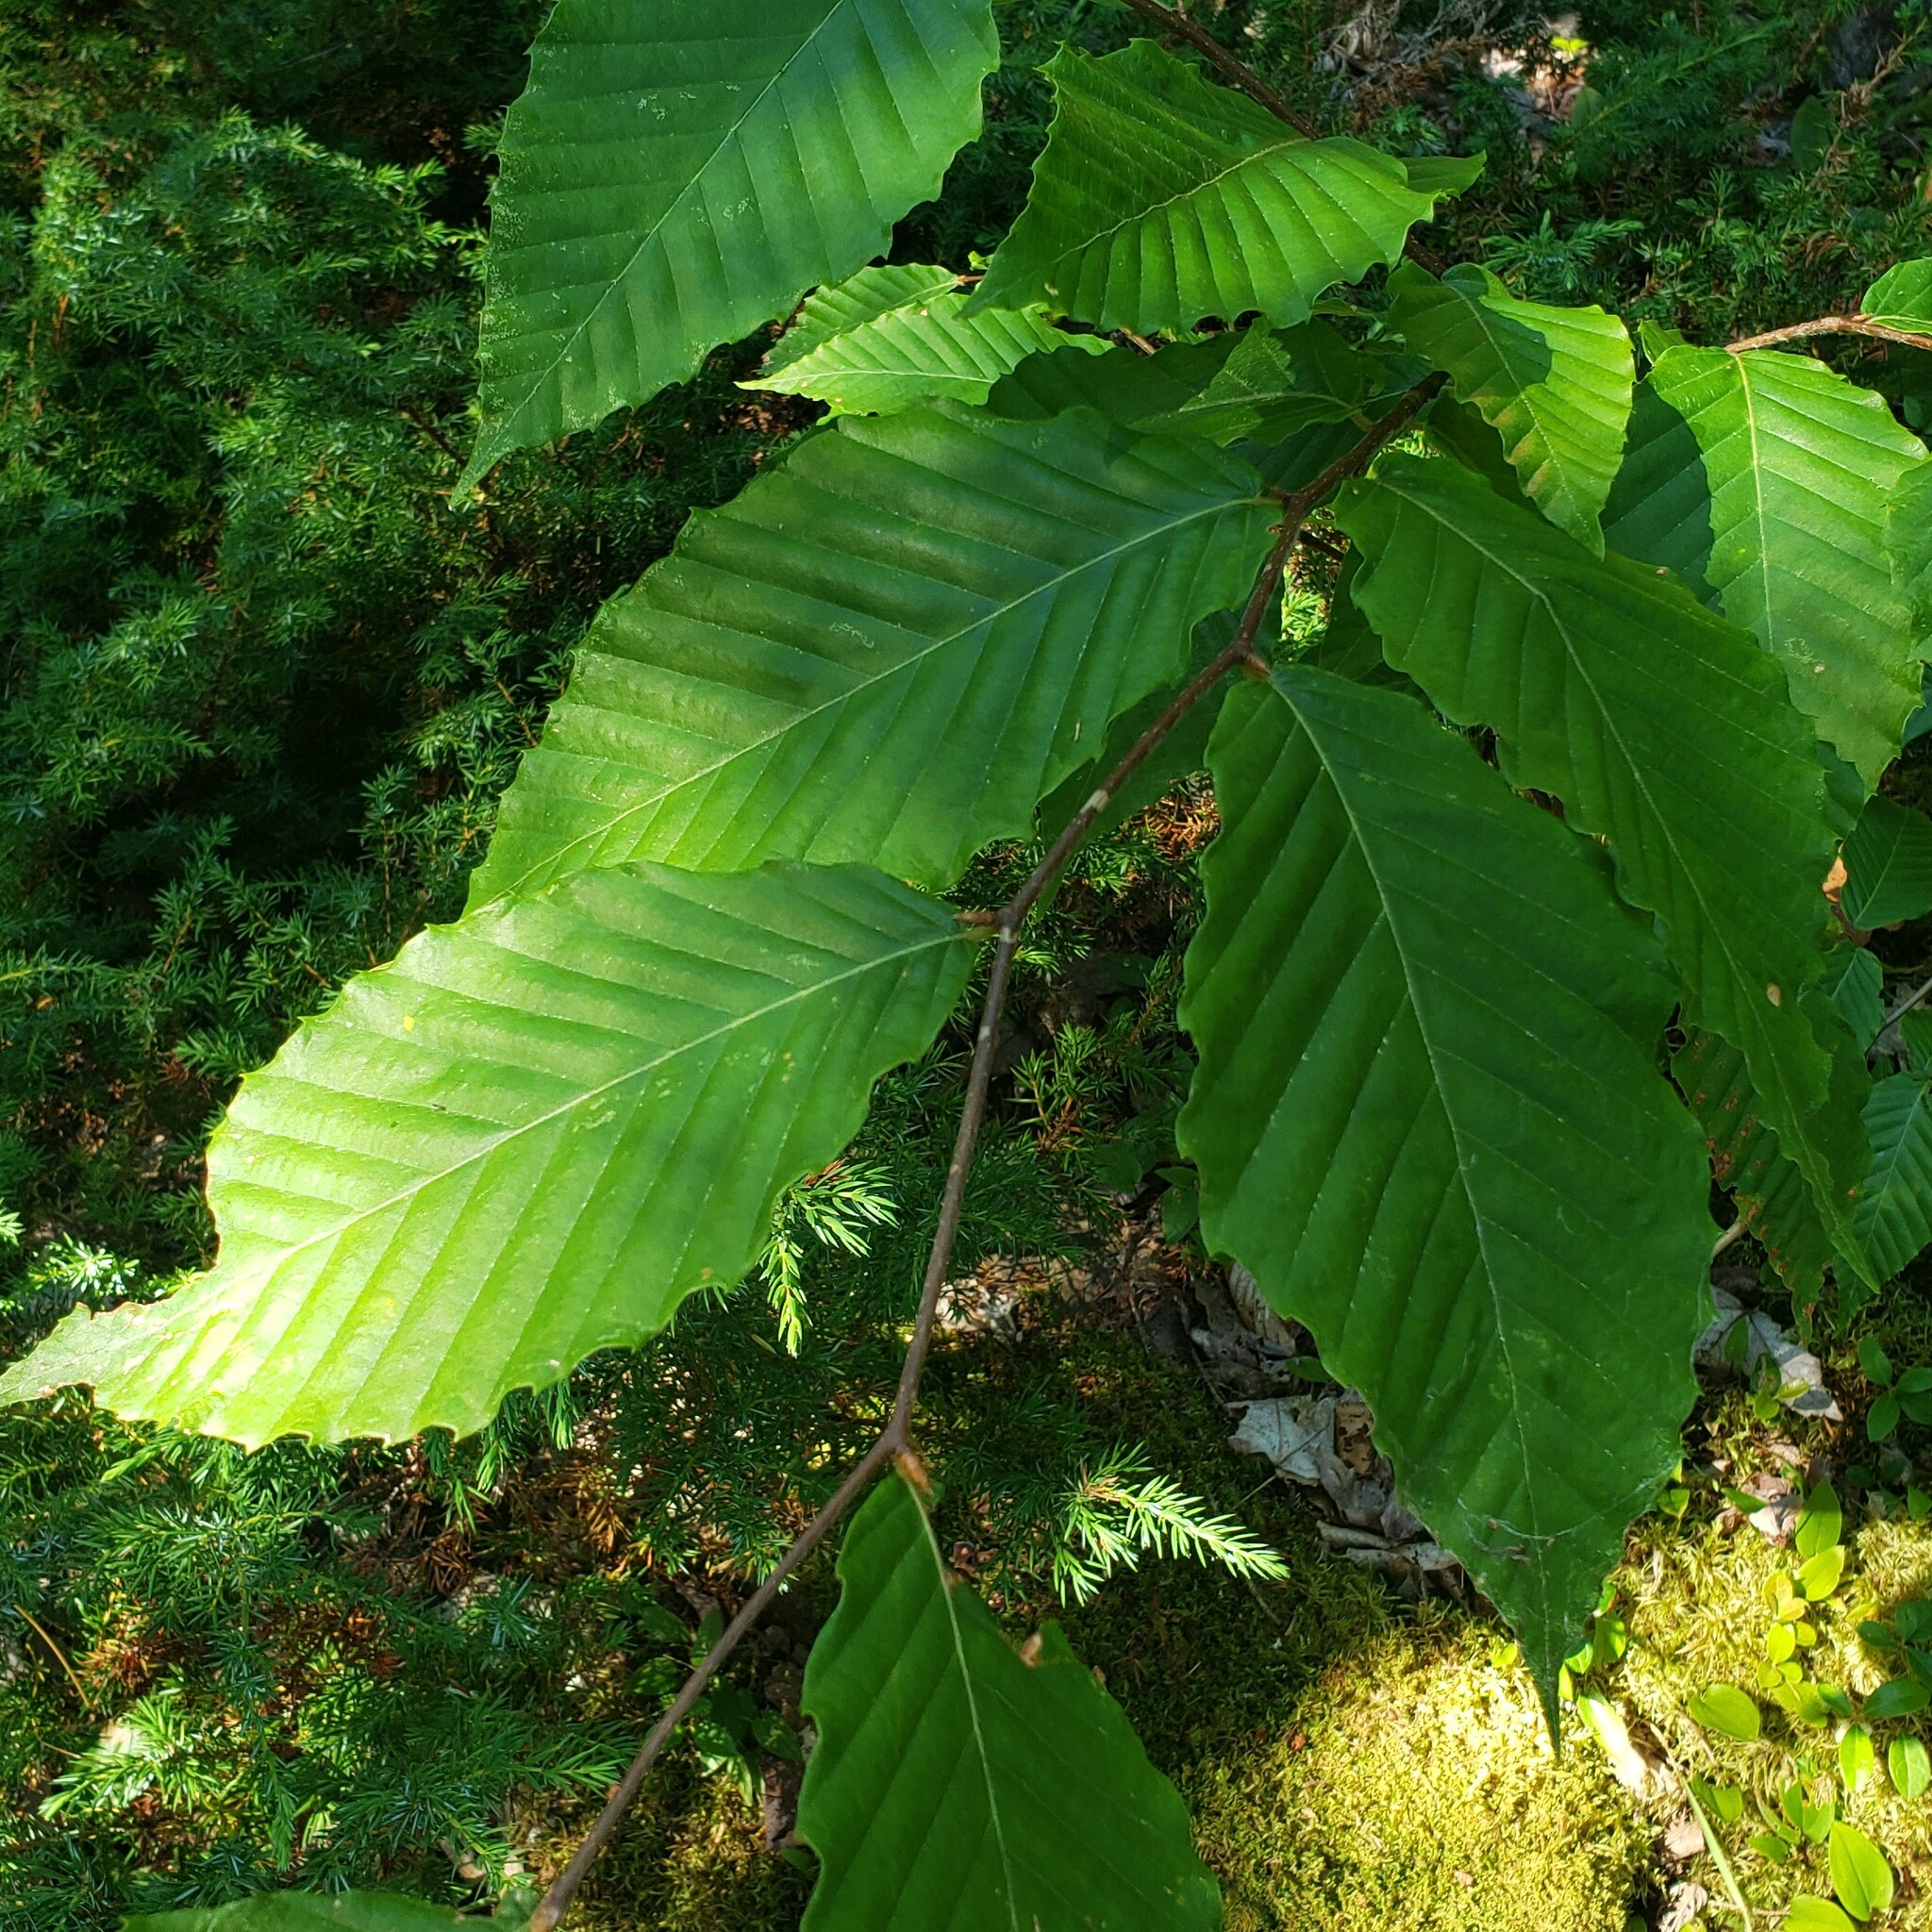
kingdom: Plantae
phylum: Tracheophyta
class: Magnoliopsida
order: Fagales
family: Fagaceae
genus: Fagus
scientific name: Fagus grandifolia
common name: American beech
